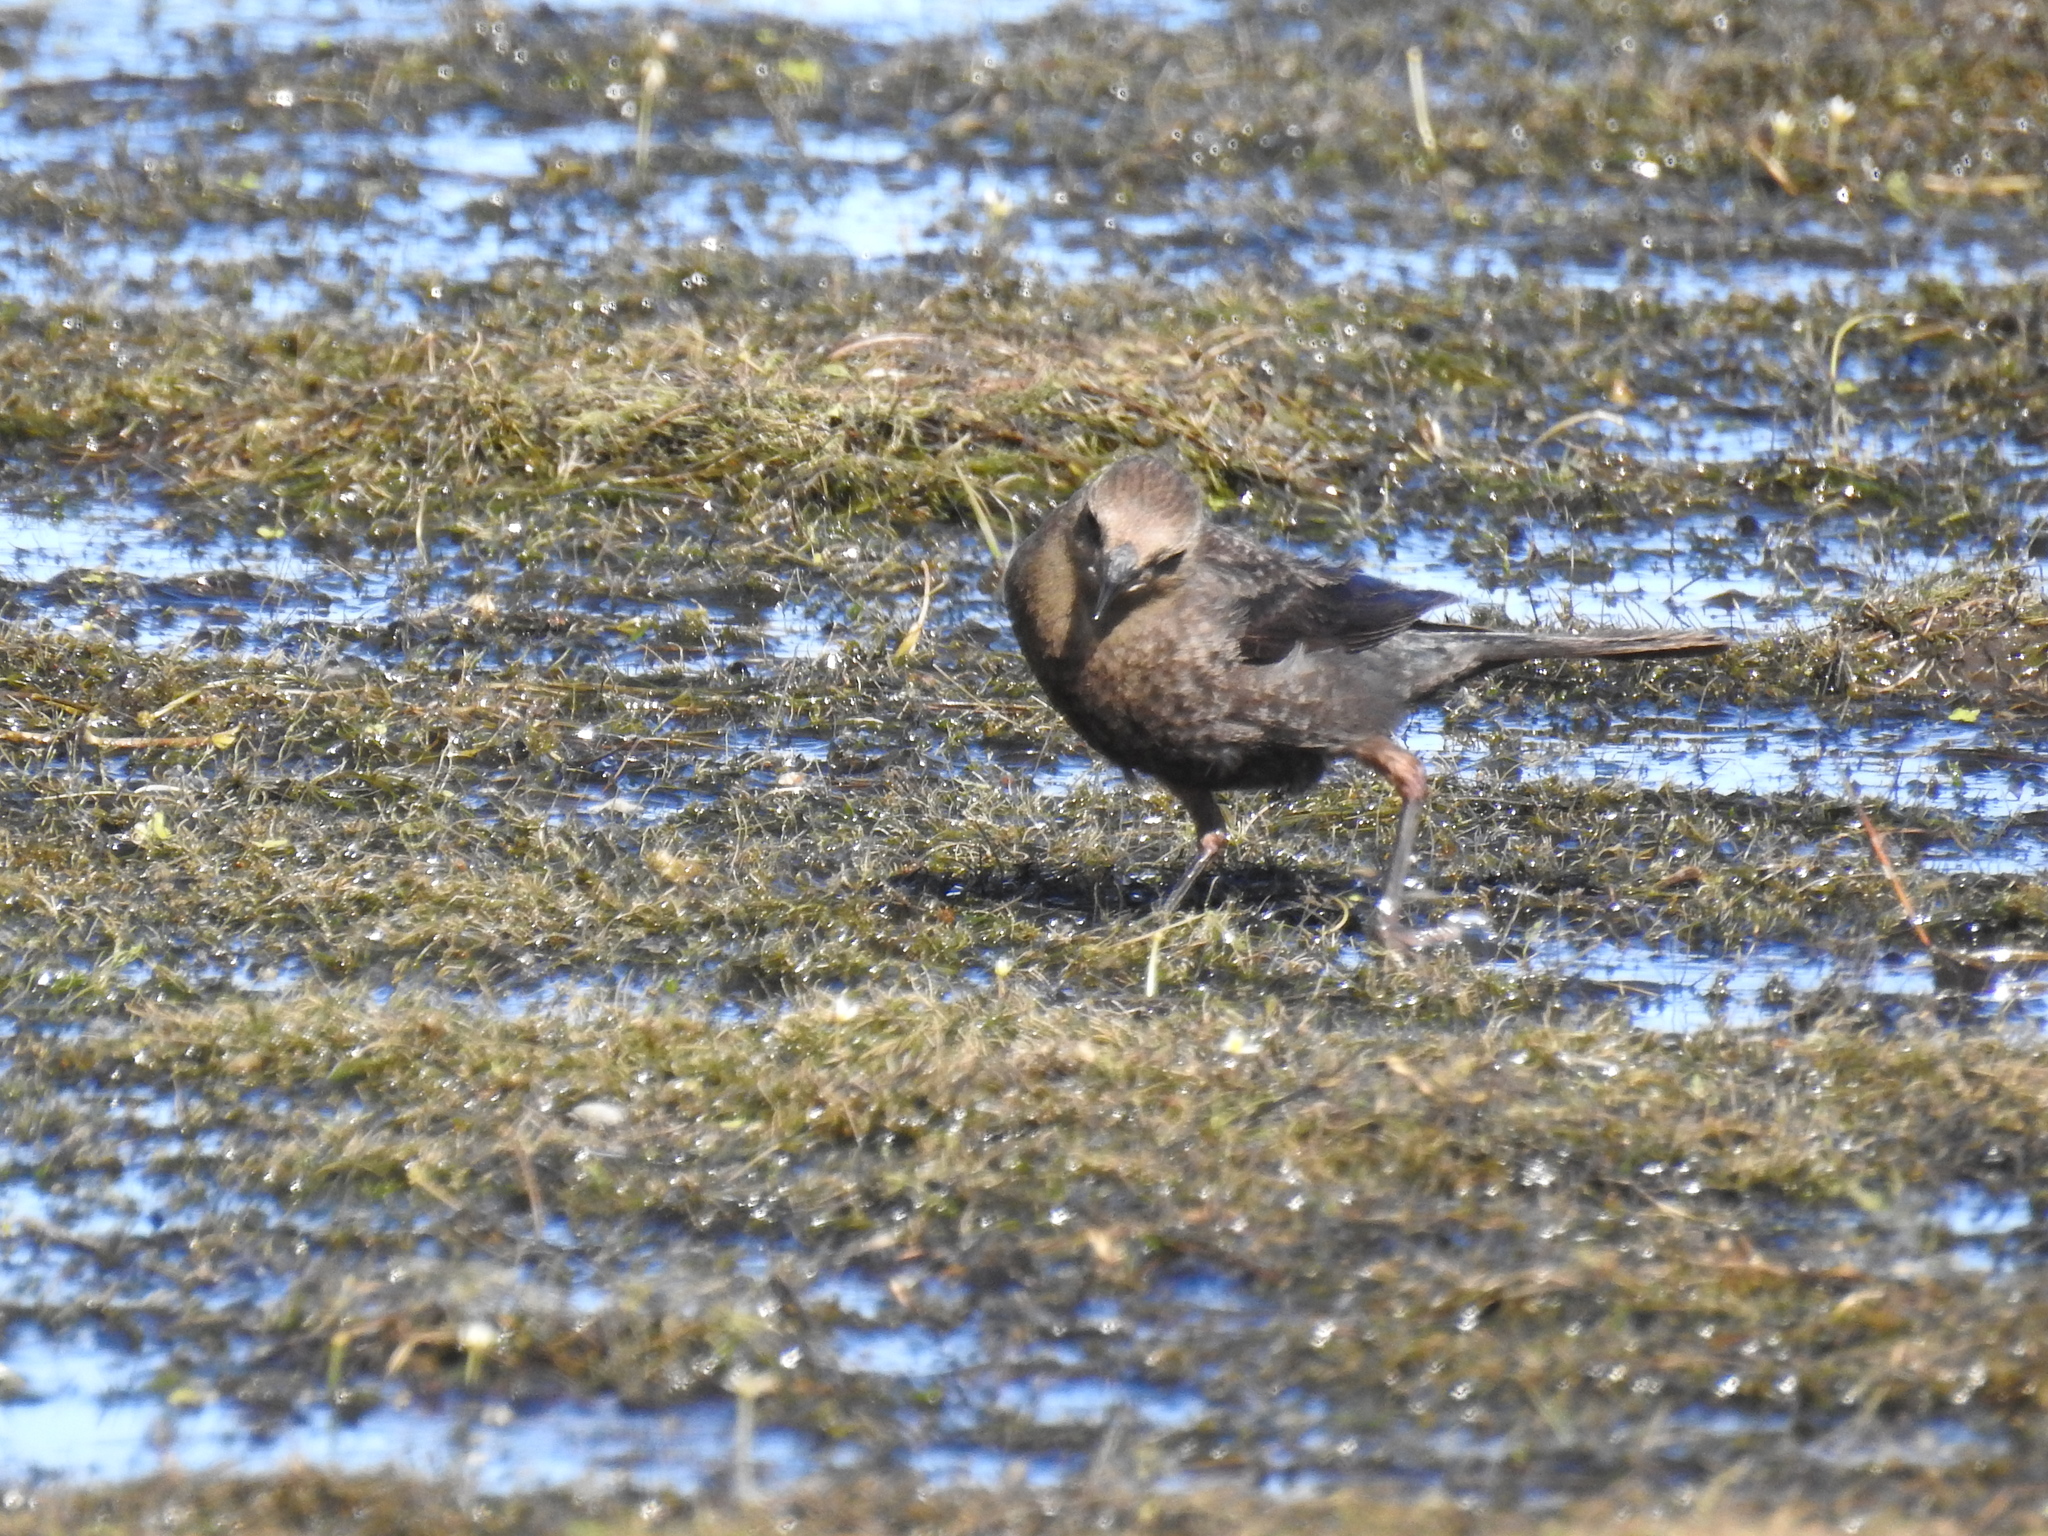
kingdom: Animalia
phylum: Chordata
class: Aves
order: Passeriformes
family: Icteridae
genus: Euphagus
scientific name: Euphagus cyanocephalus
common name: Brewer's blackbird
